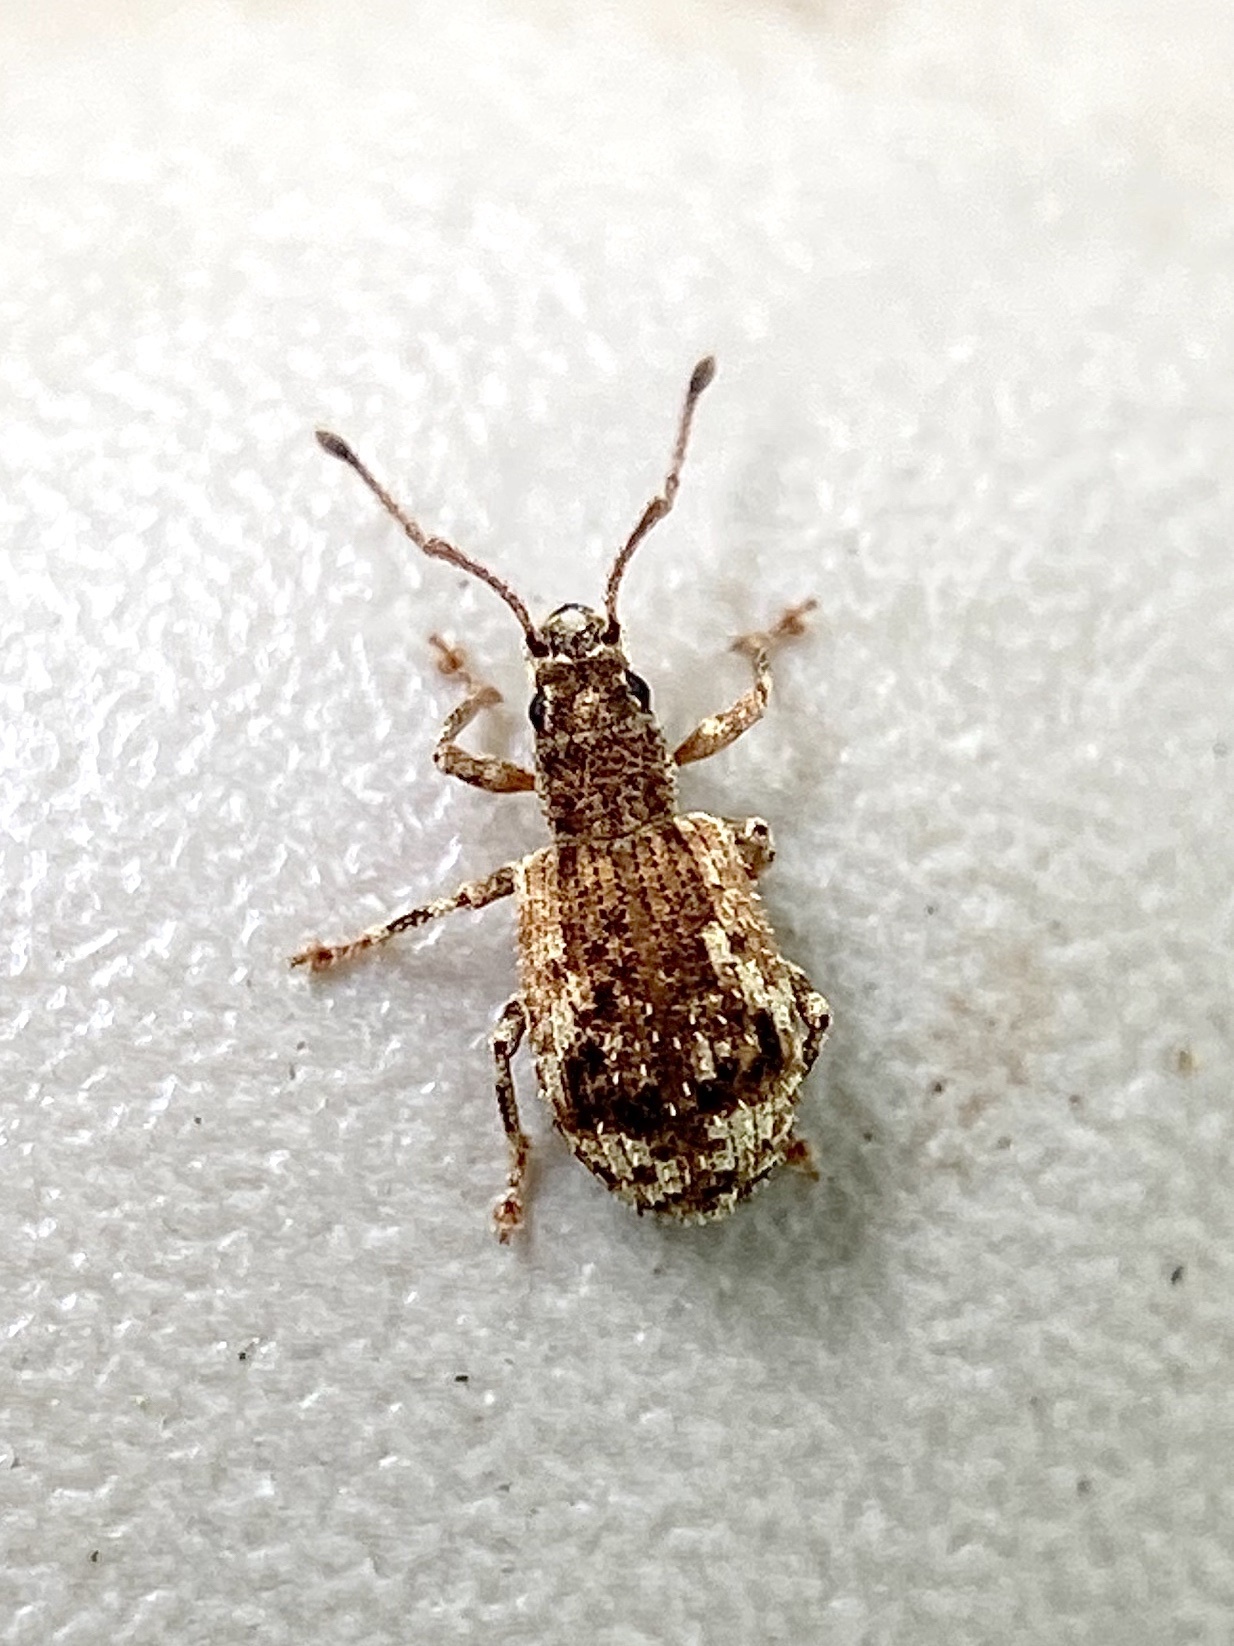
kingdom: Animalia
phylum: Arthropoda
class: Insecta
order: Coleoptera
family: Curculionidae
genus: Pseudoedophrys
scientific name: Pseudoedophrys hilleri
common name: Weevil
